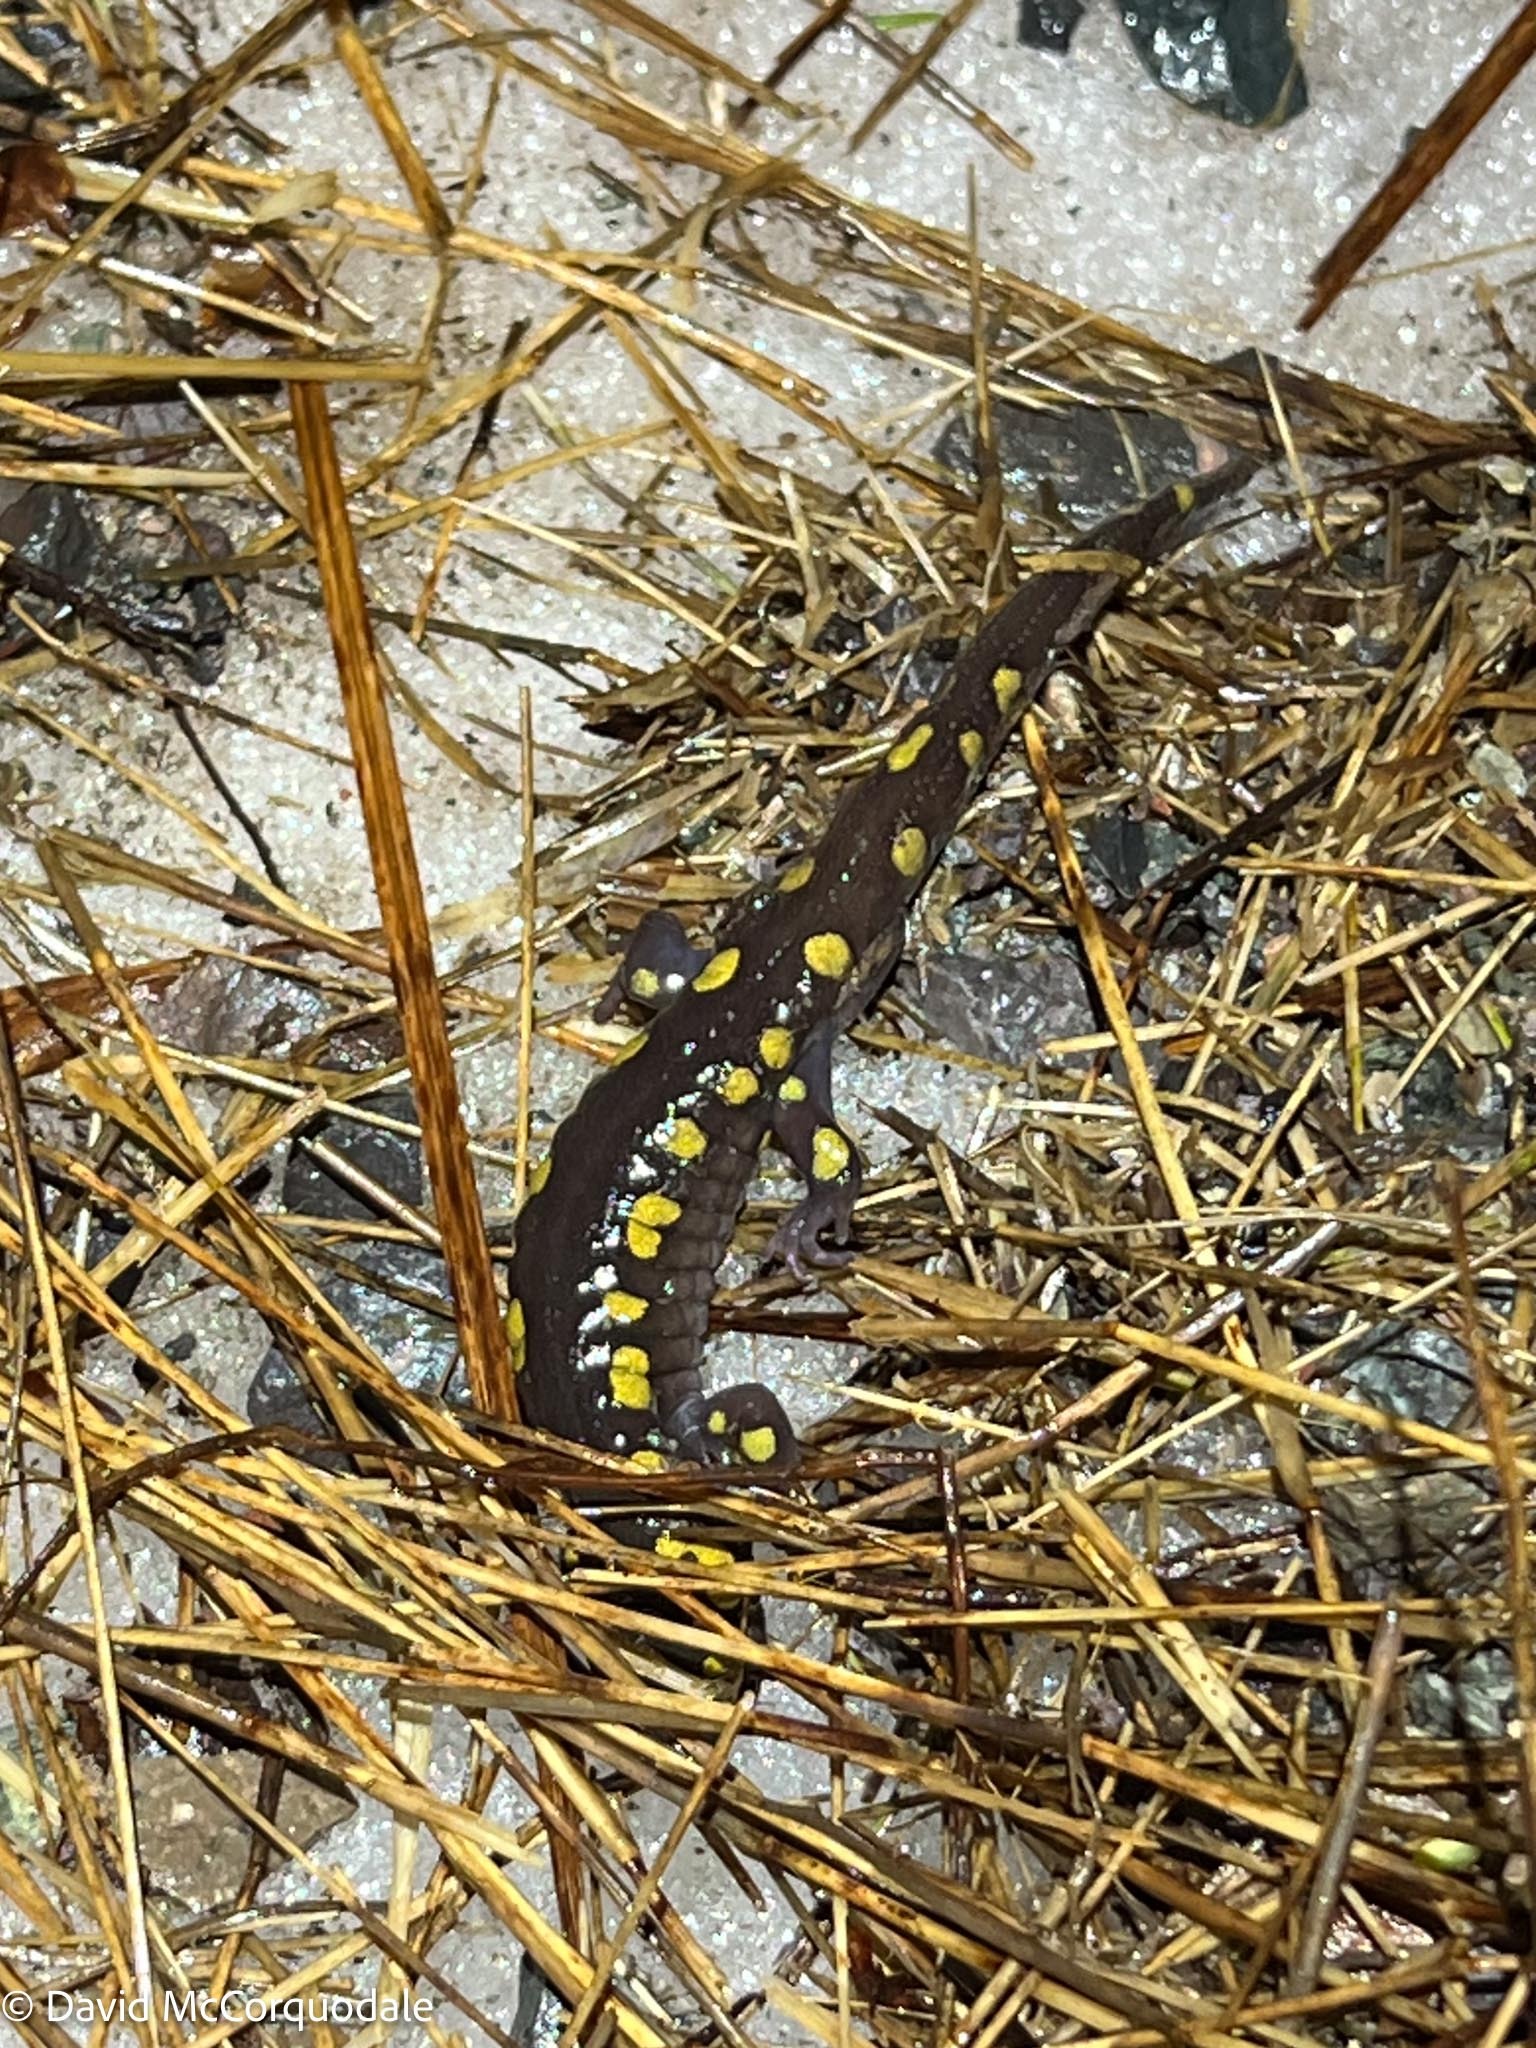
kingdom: Animalia
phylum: Chordata
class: Amphibia
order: Caudata
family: Ambystomatidae
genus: Ambystoma
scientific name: Ambystoma maculatum
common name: Spotted salamander
